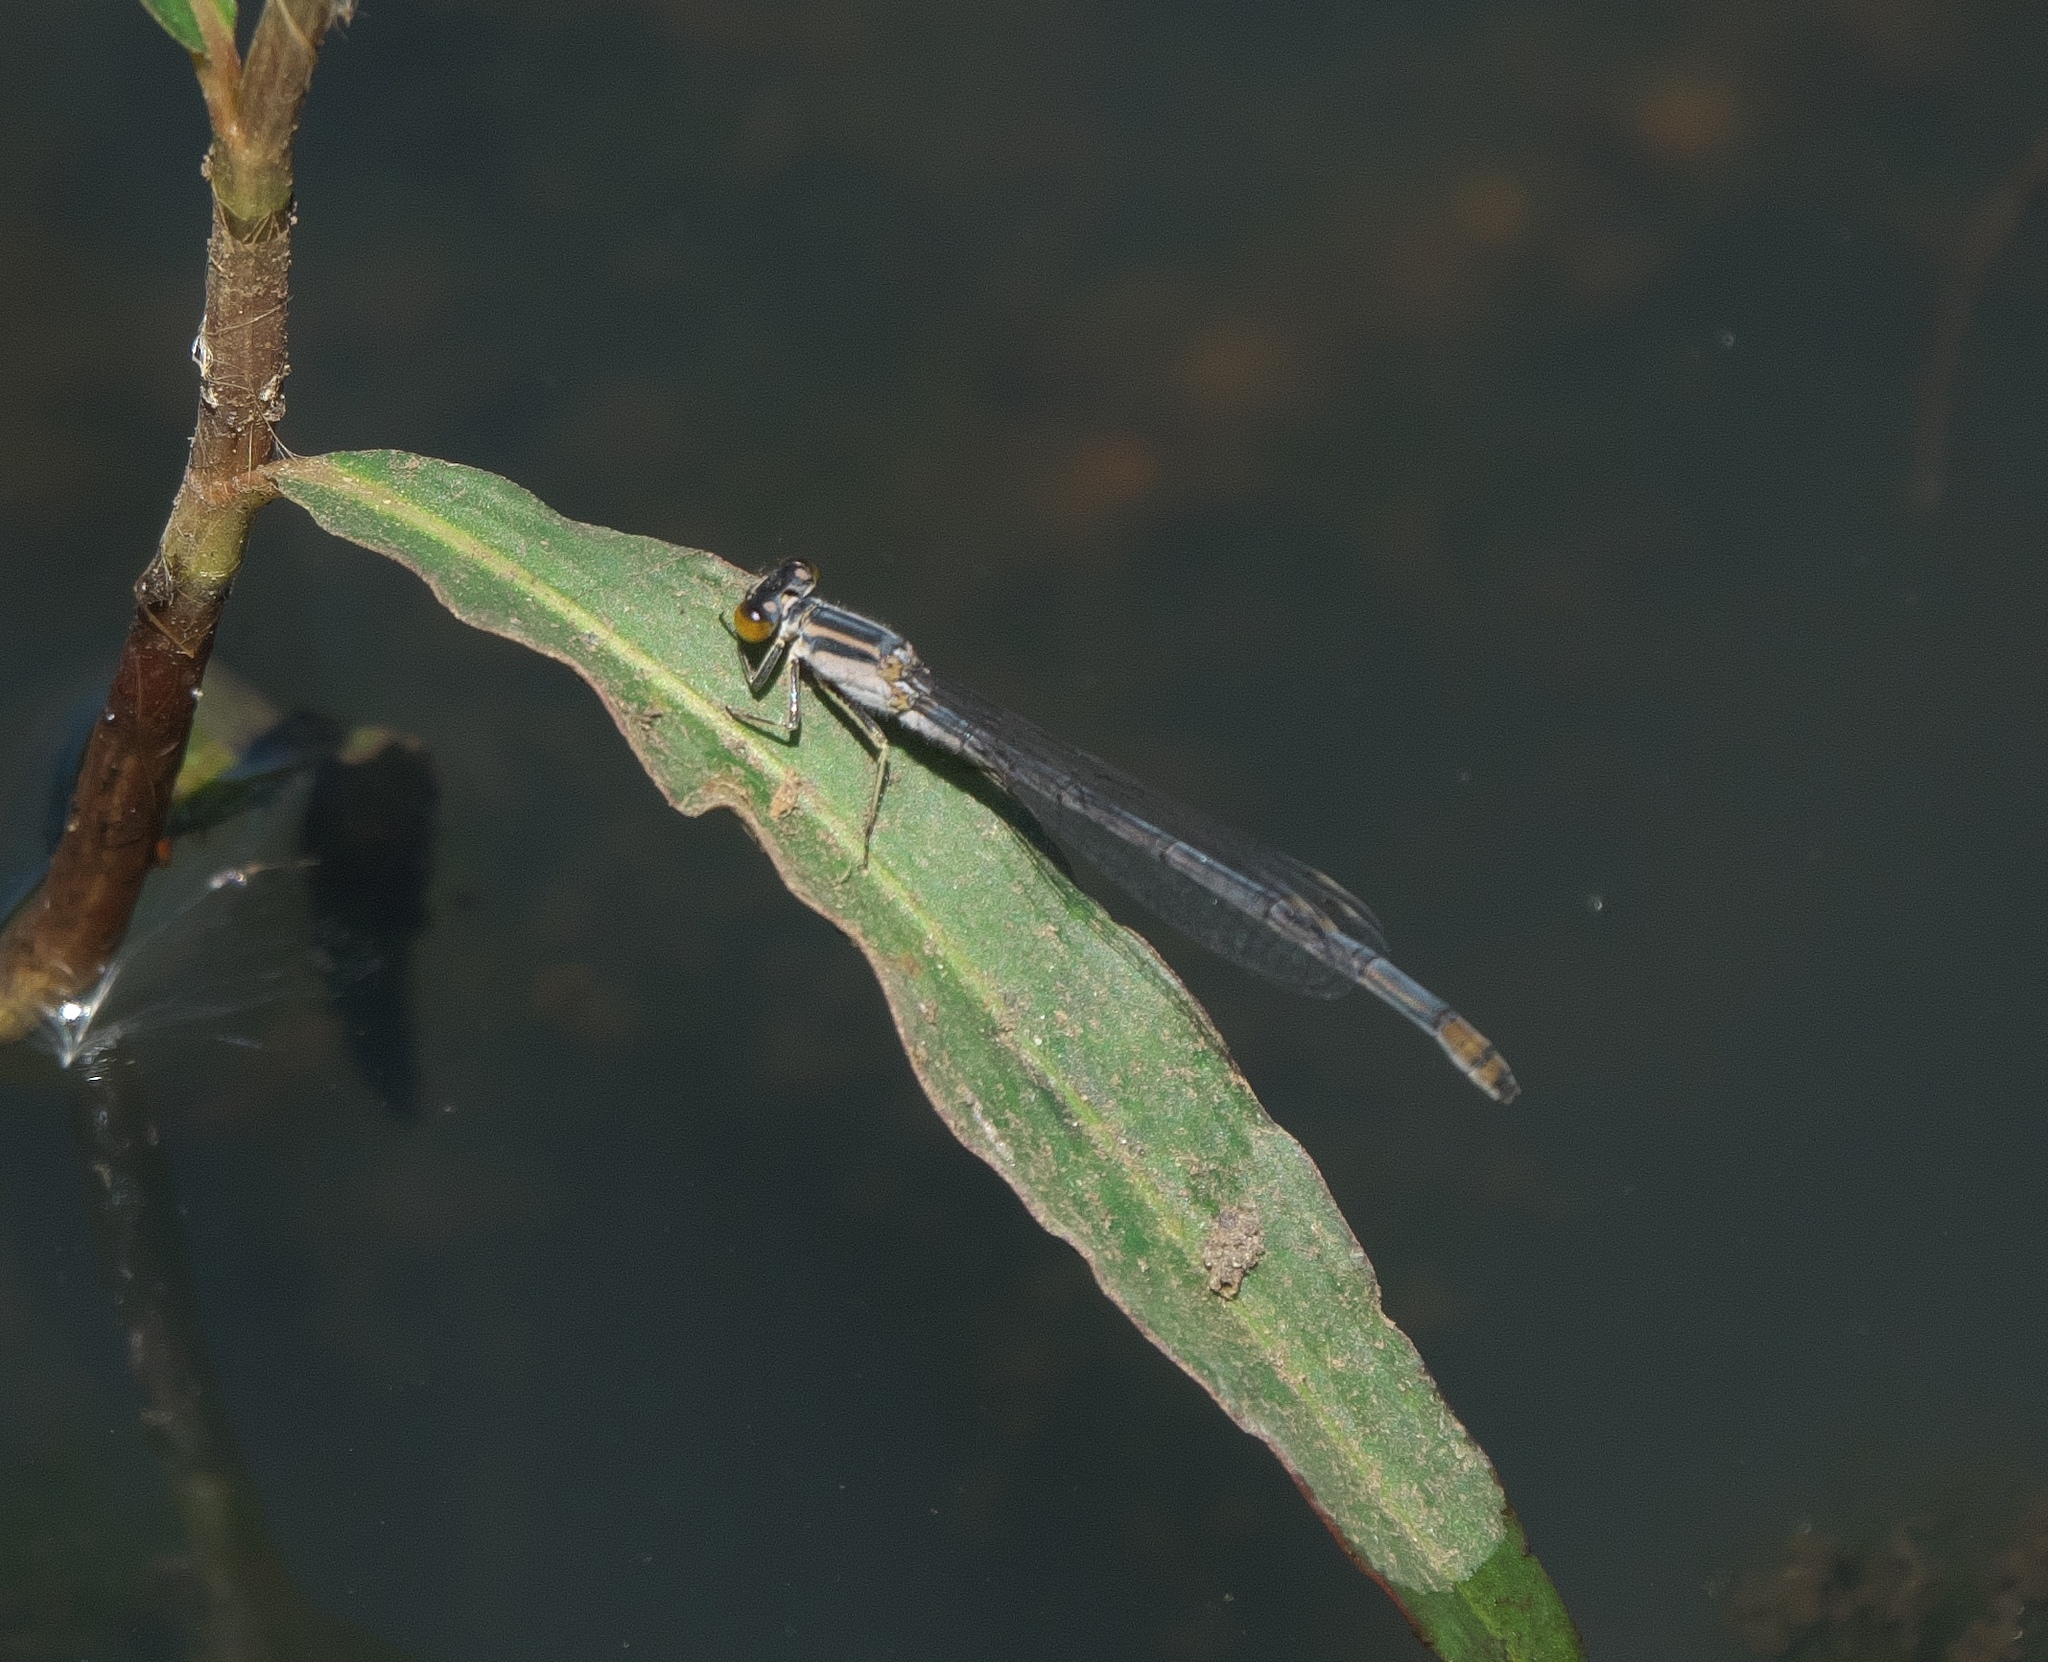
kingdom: Animalia
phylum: Arthropoda
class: Insecta
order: Odonata
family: Coenagrionidae
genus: Ischnura
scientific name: Ischnura heterosticta
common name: Common bluetail
